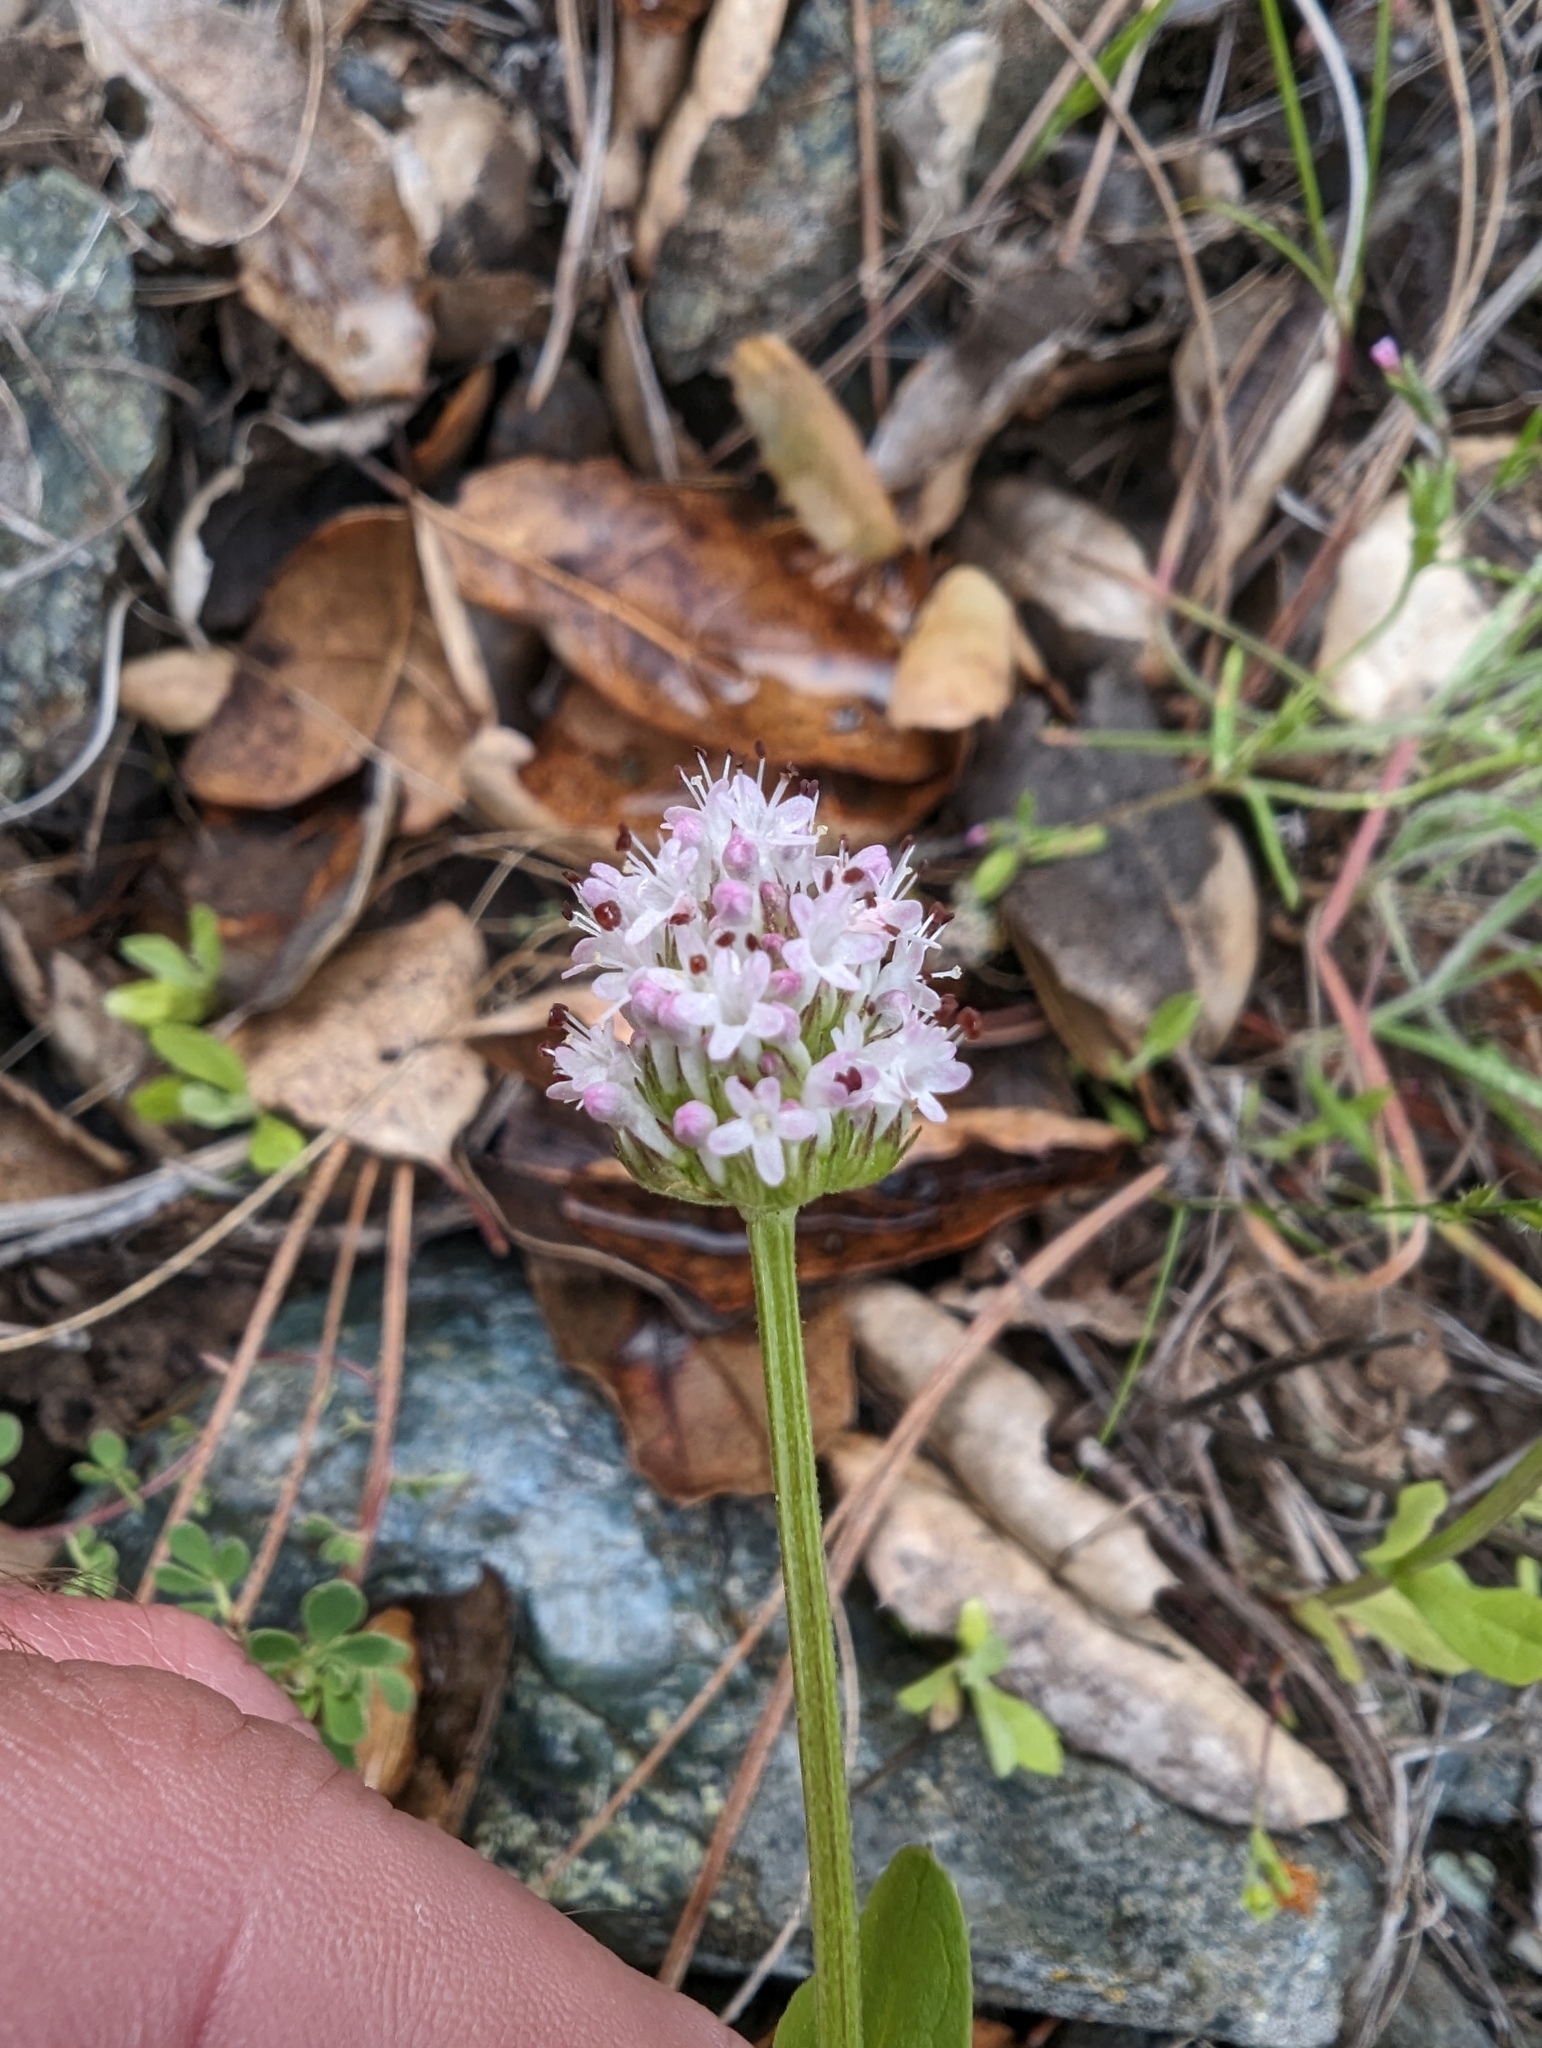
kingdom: Plantae
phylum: Tracheophyta
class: Magnoliopsida
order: Dipsacales
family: Caprifoliaceae
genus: Plectritis
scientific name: Plectritis macroptera
